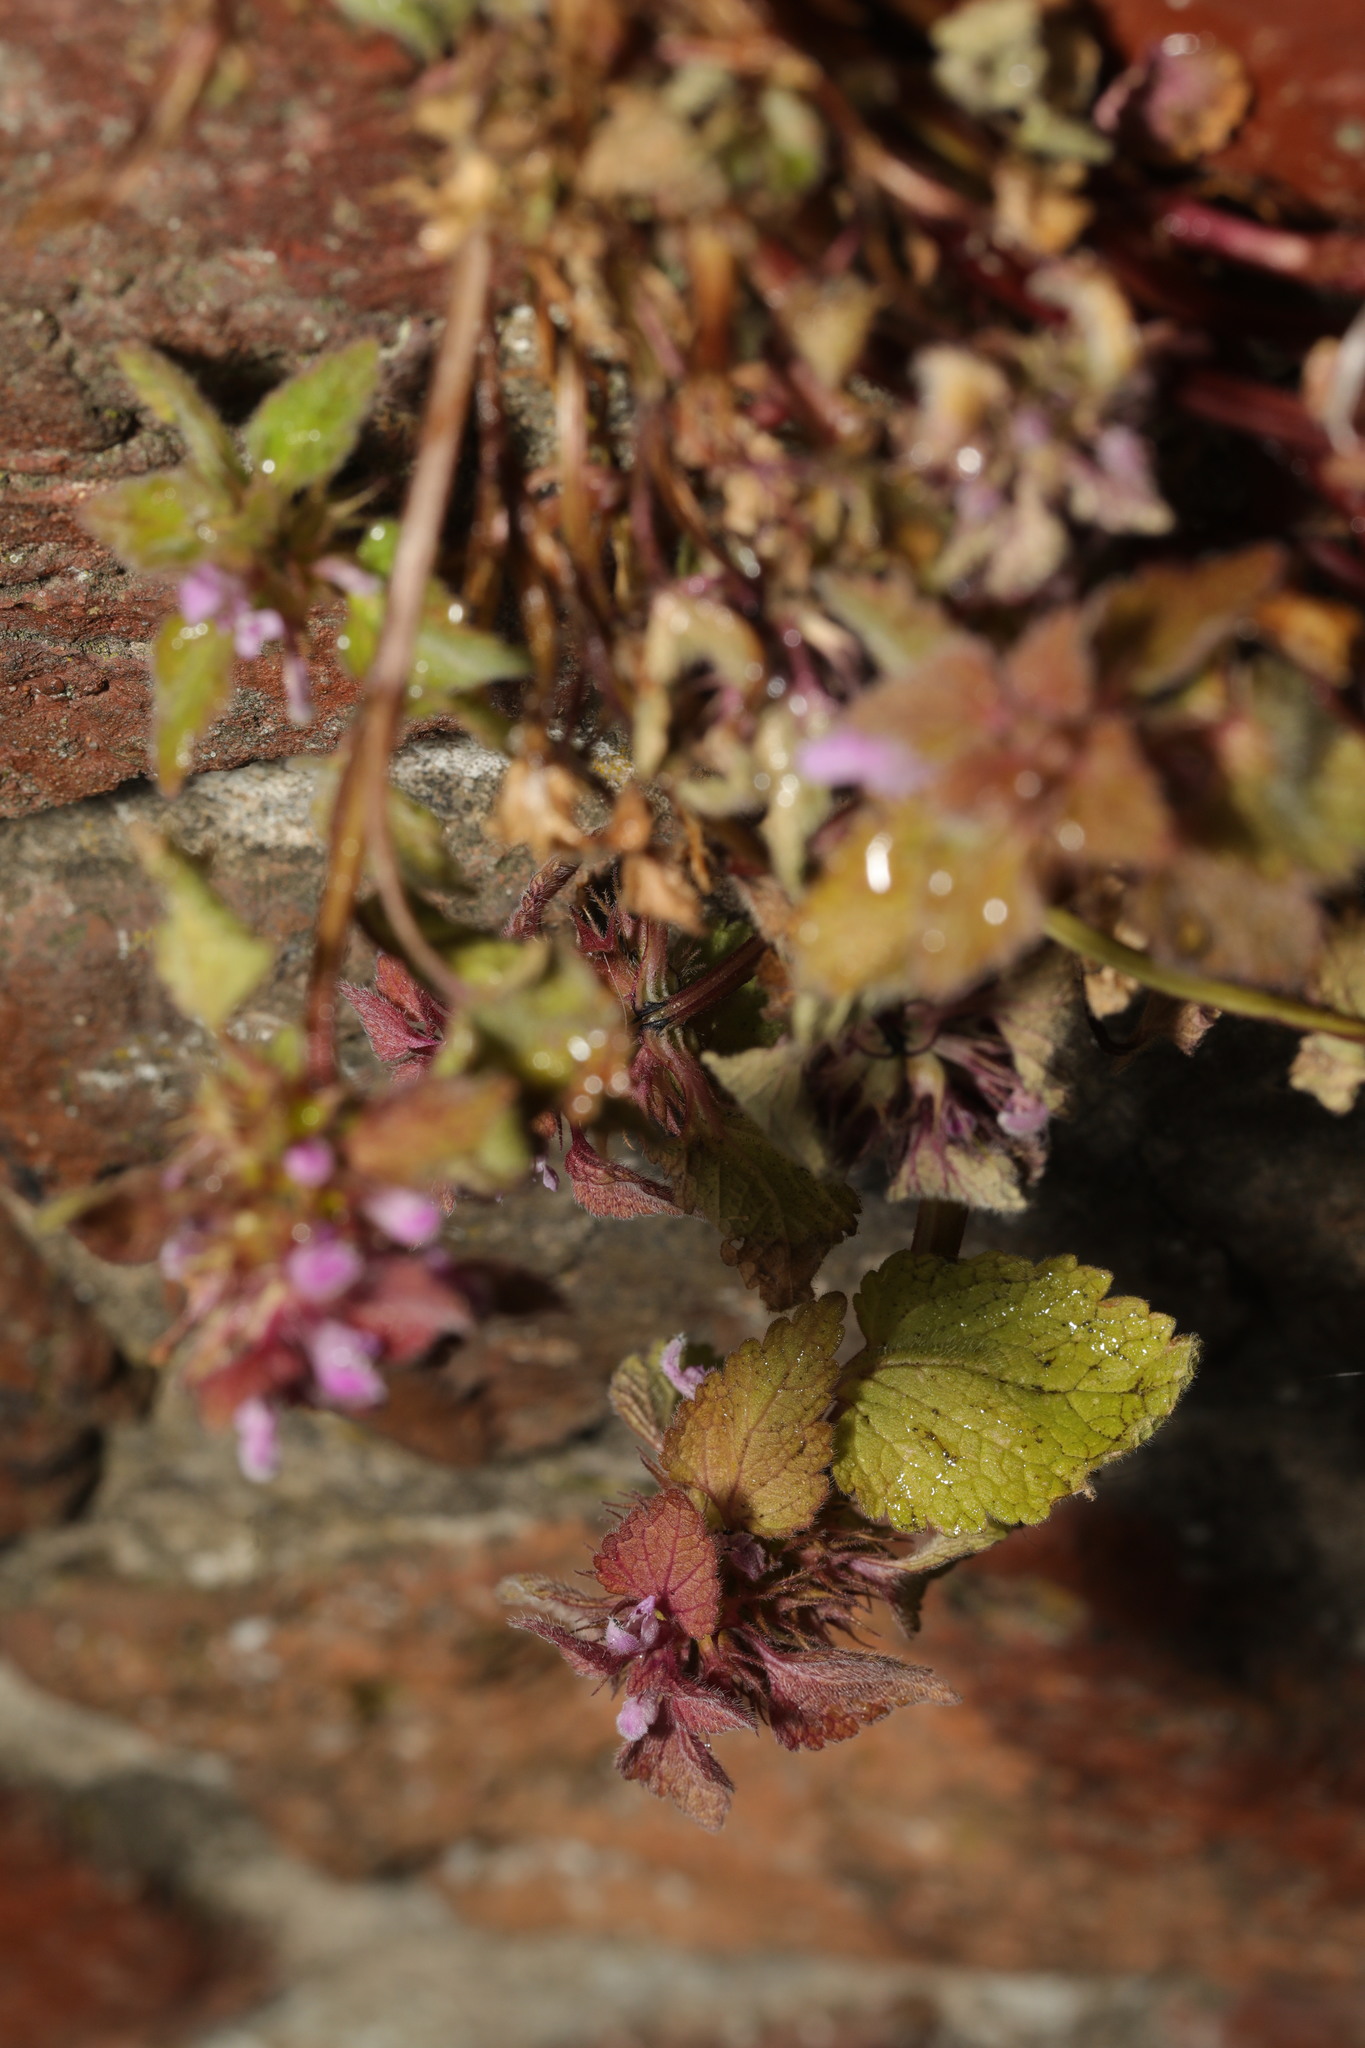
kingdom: Plantae
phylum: Tracheophyta
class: Magnoliopsida
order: Lamiales
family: Lamiaceae
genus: Lamium
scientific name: Lamium purpureum
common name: Red dead-nettle
